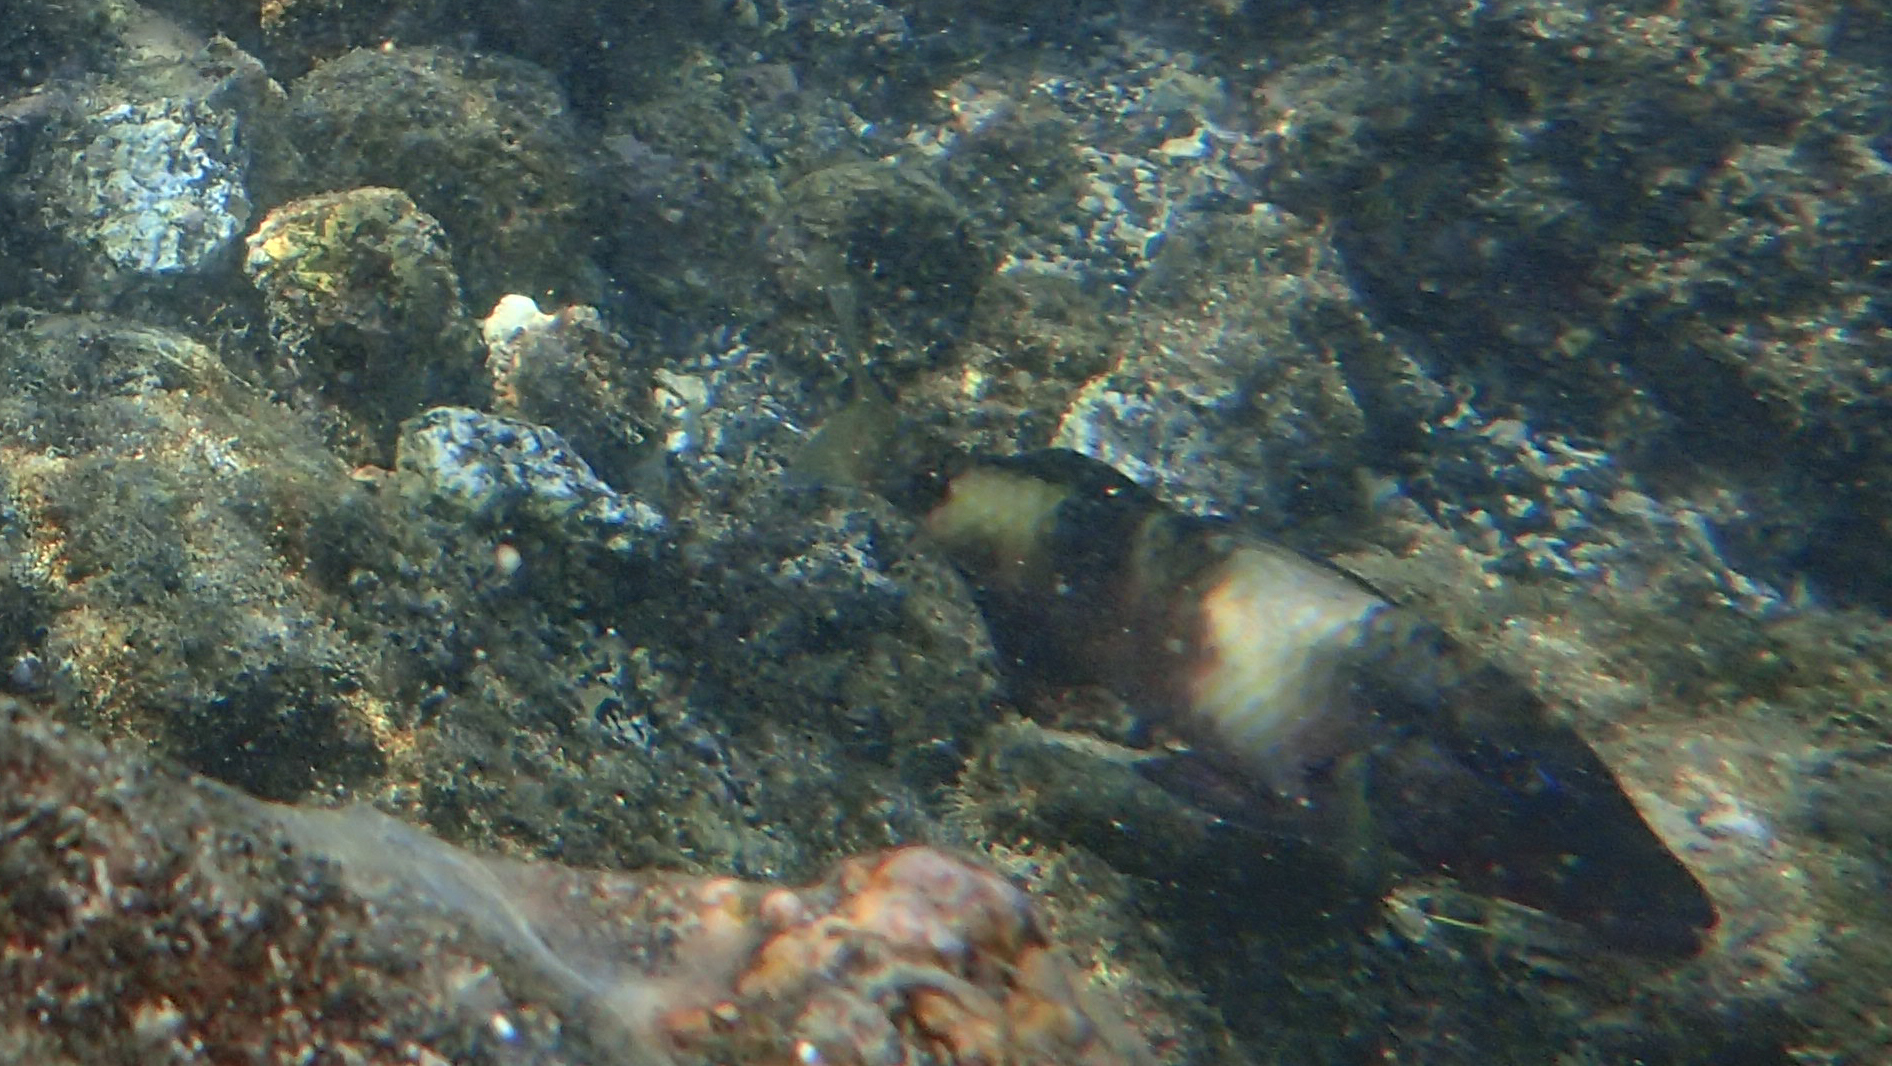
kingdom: Animalia
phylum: Chordata
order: Perciformes
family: Mullidae
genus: Parupeneus
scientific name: Parupeneus multifasciatus
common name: Manybar goatfish
